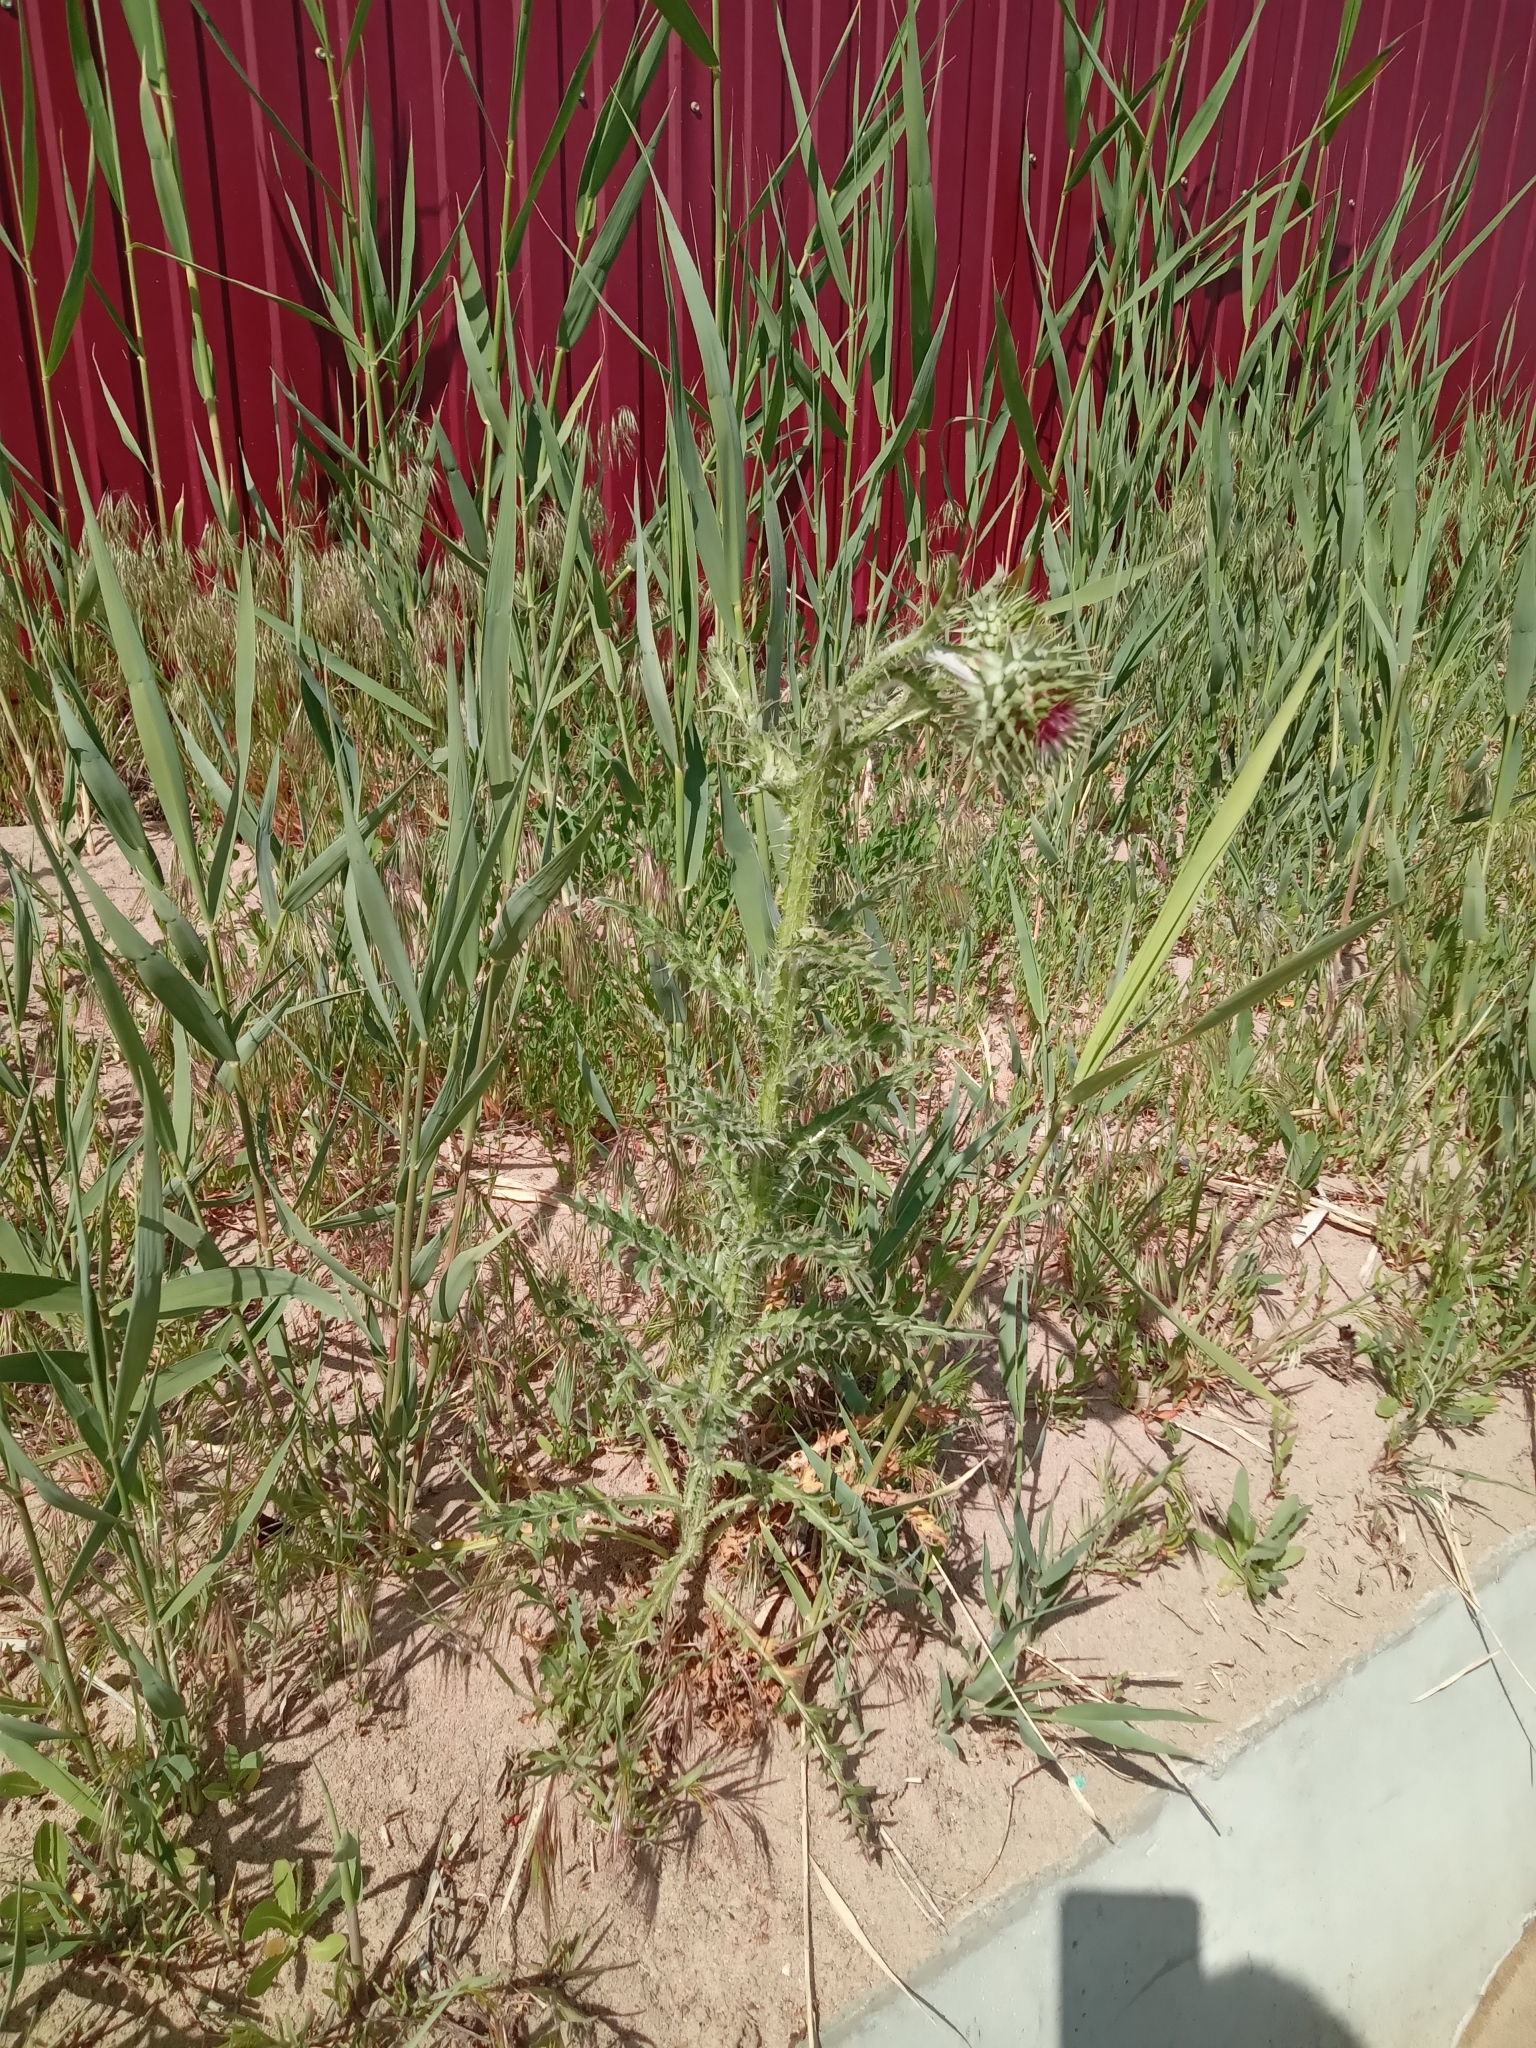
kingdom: Plantae
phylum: Tracheophyta
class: Magnoliopsida
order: Asterales
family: Asteraceae
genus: Carduus
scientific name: Carduus nutans
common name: Musk thistle
